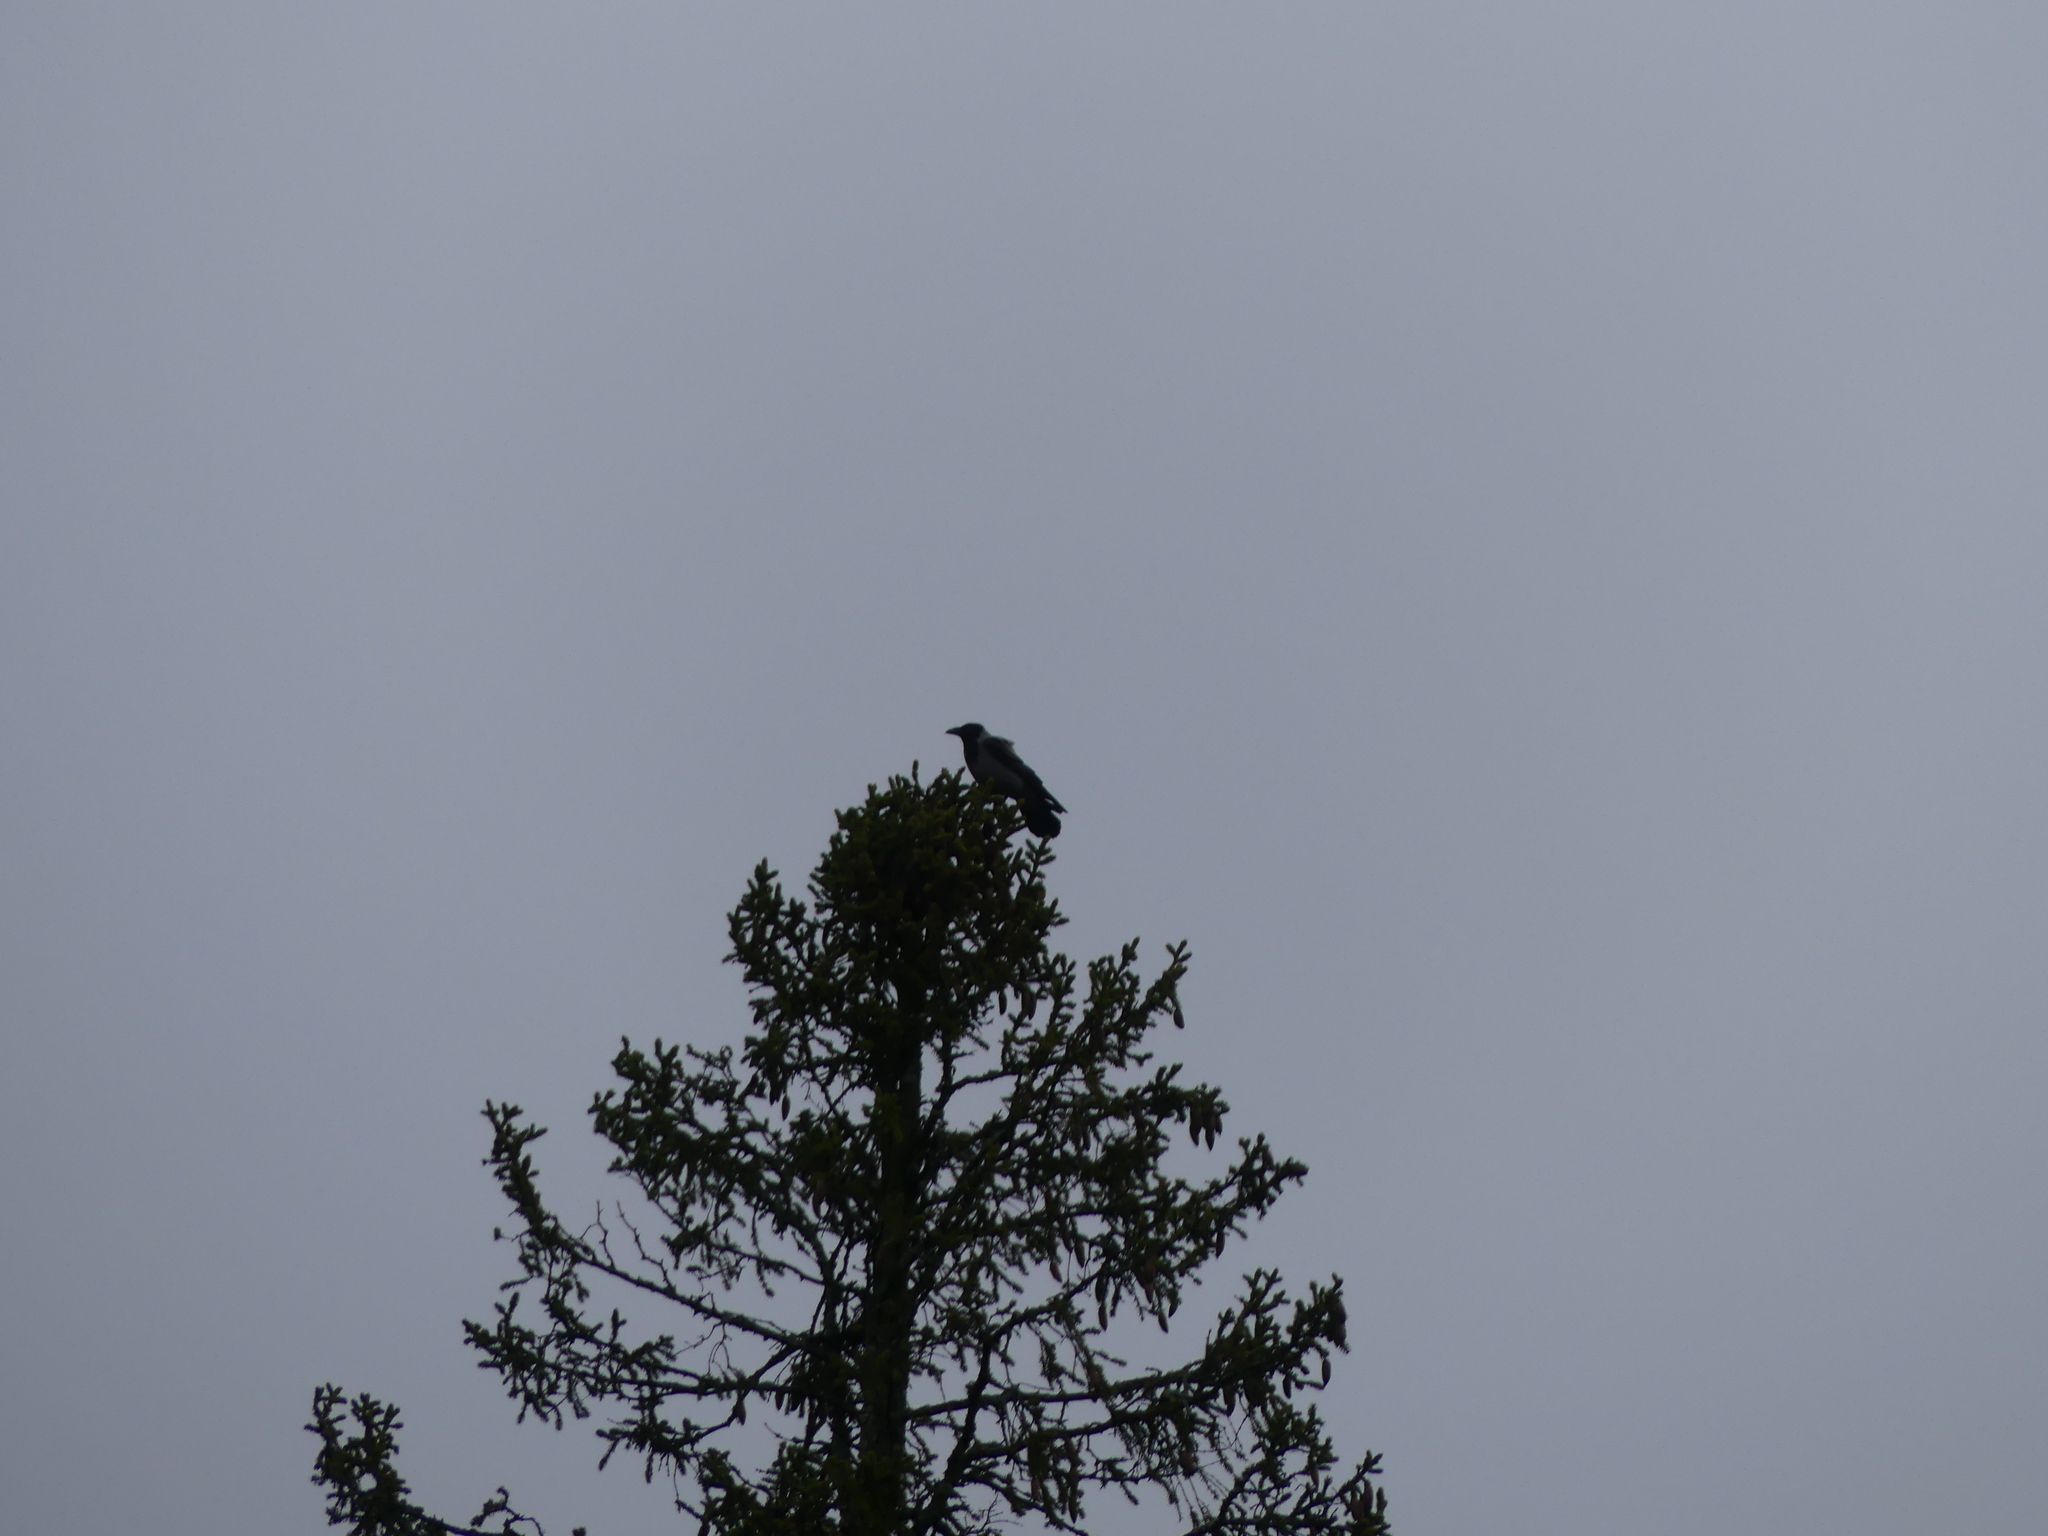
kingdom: Animalia
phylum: Chordata
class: Aves
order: Passeriformes
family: Corvidae
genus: Corvus
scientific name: Corvus cornix
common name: Hooded crow
